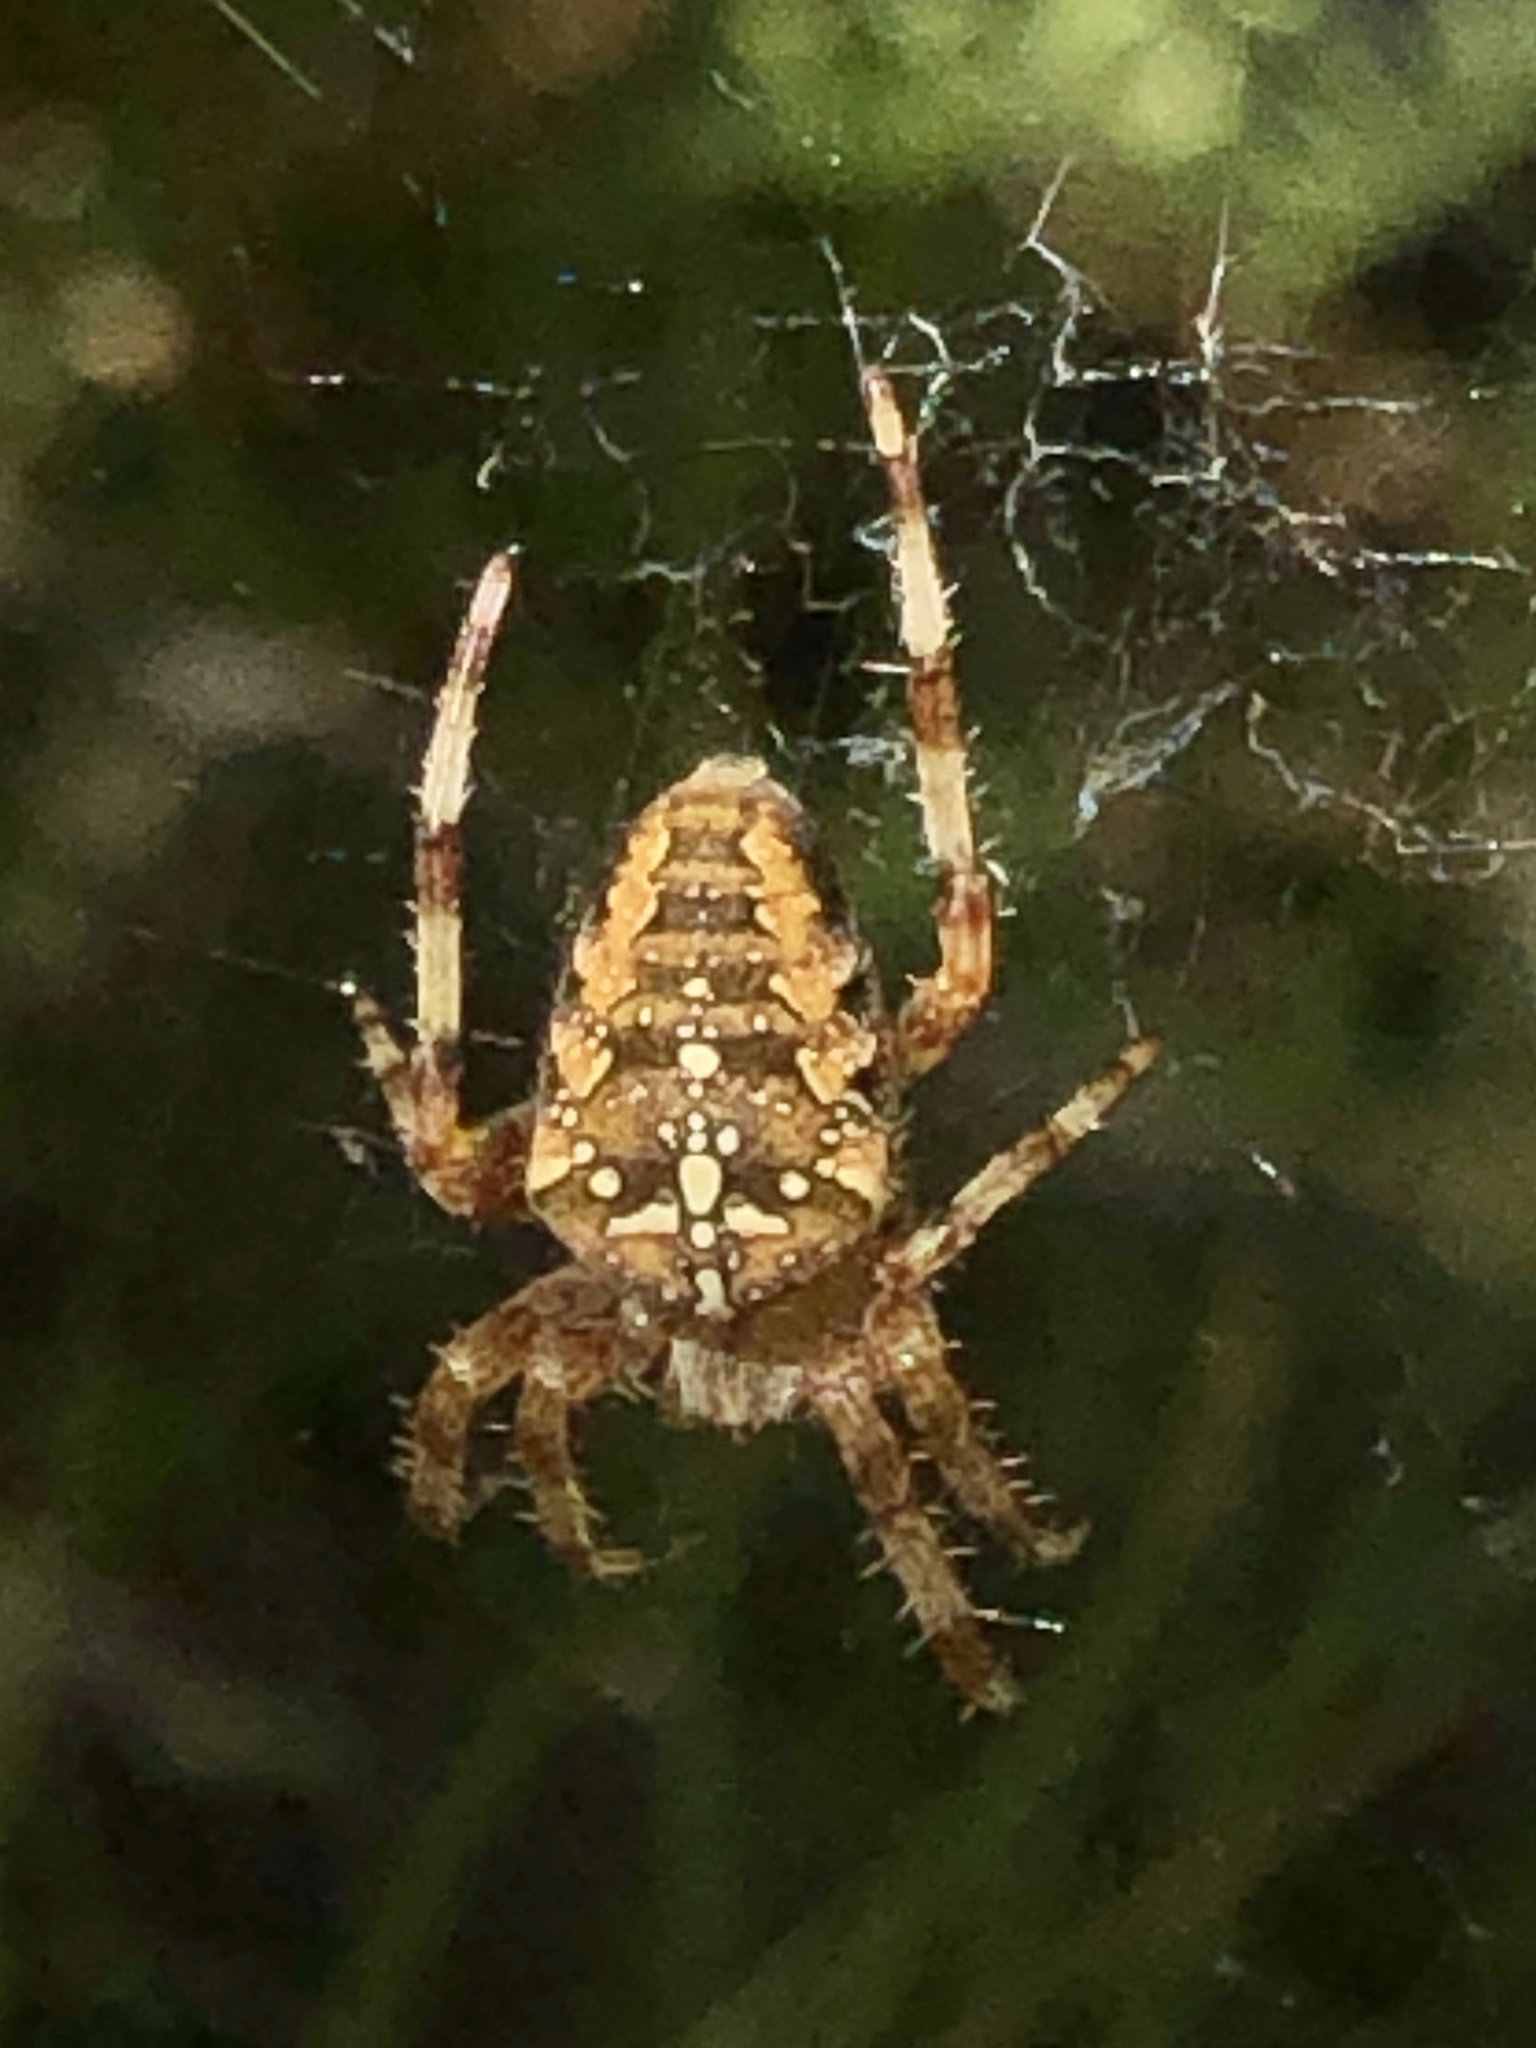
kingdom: Animalia
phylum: Arthropoda
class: Arachnida
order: Araneae
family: Araneidae
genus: Araneus
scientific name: Araneus diadematus
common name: Cross orbweaver
